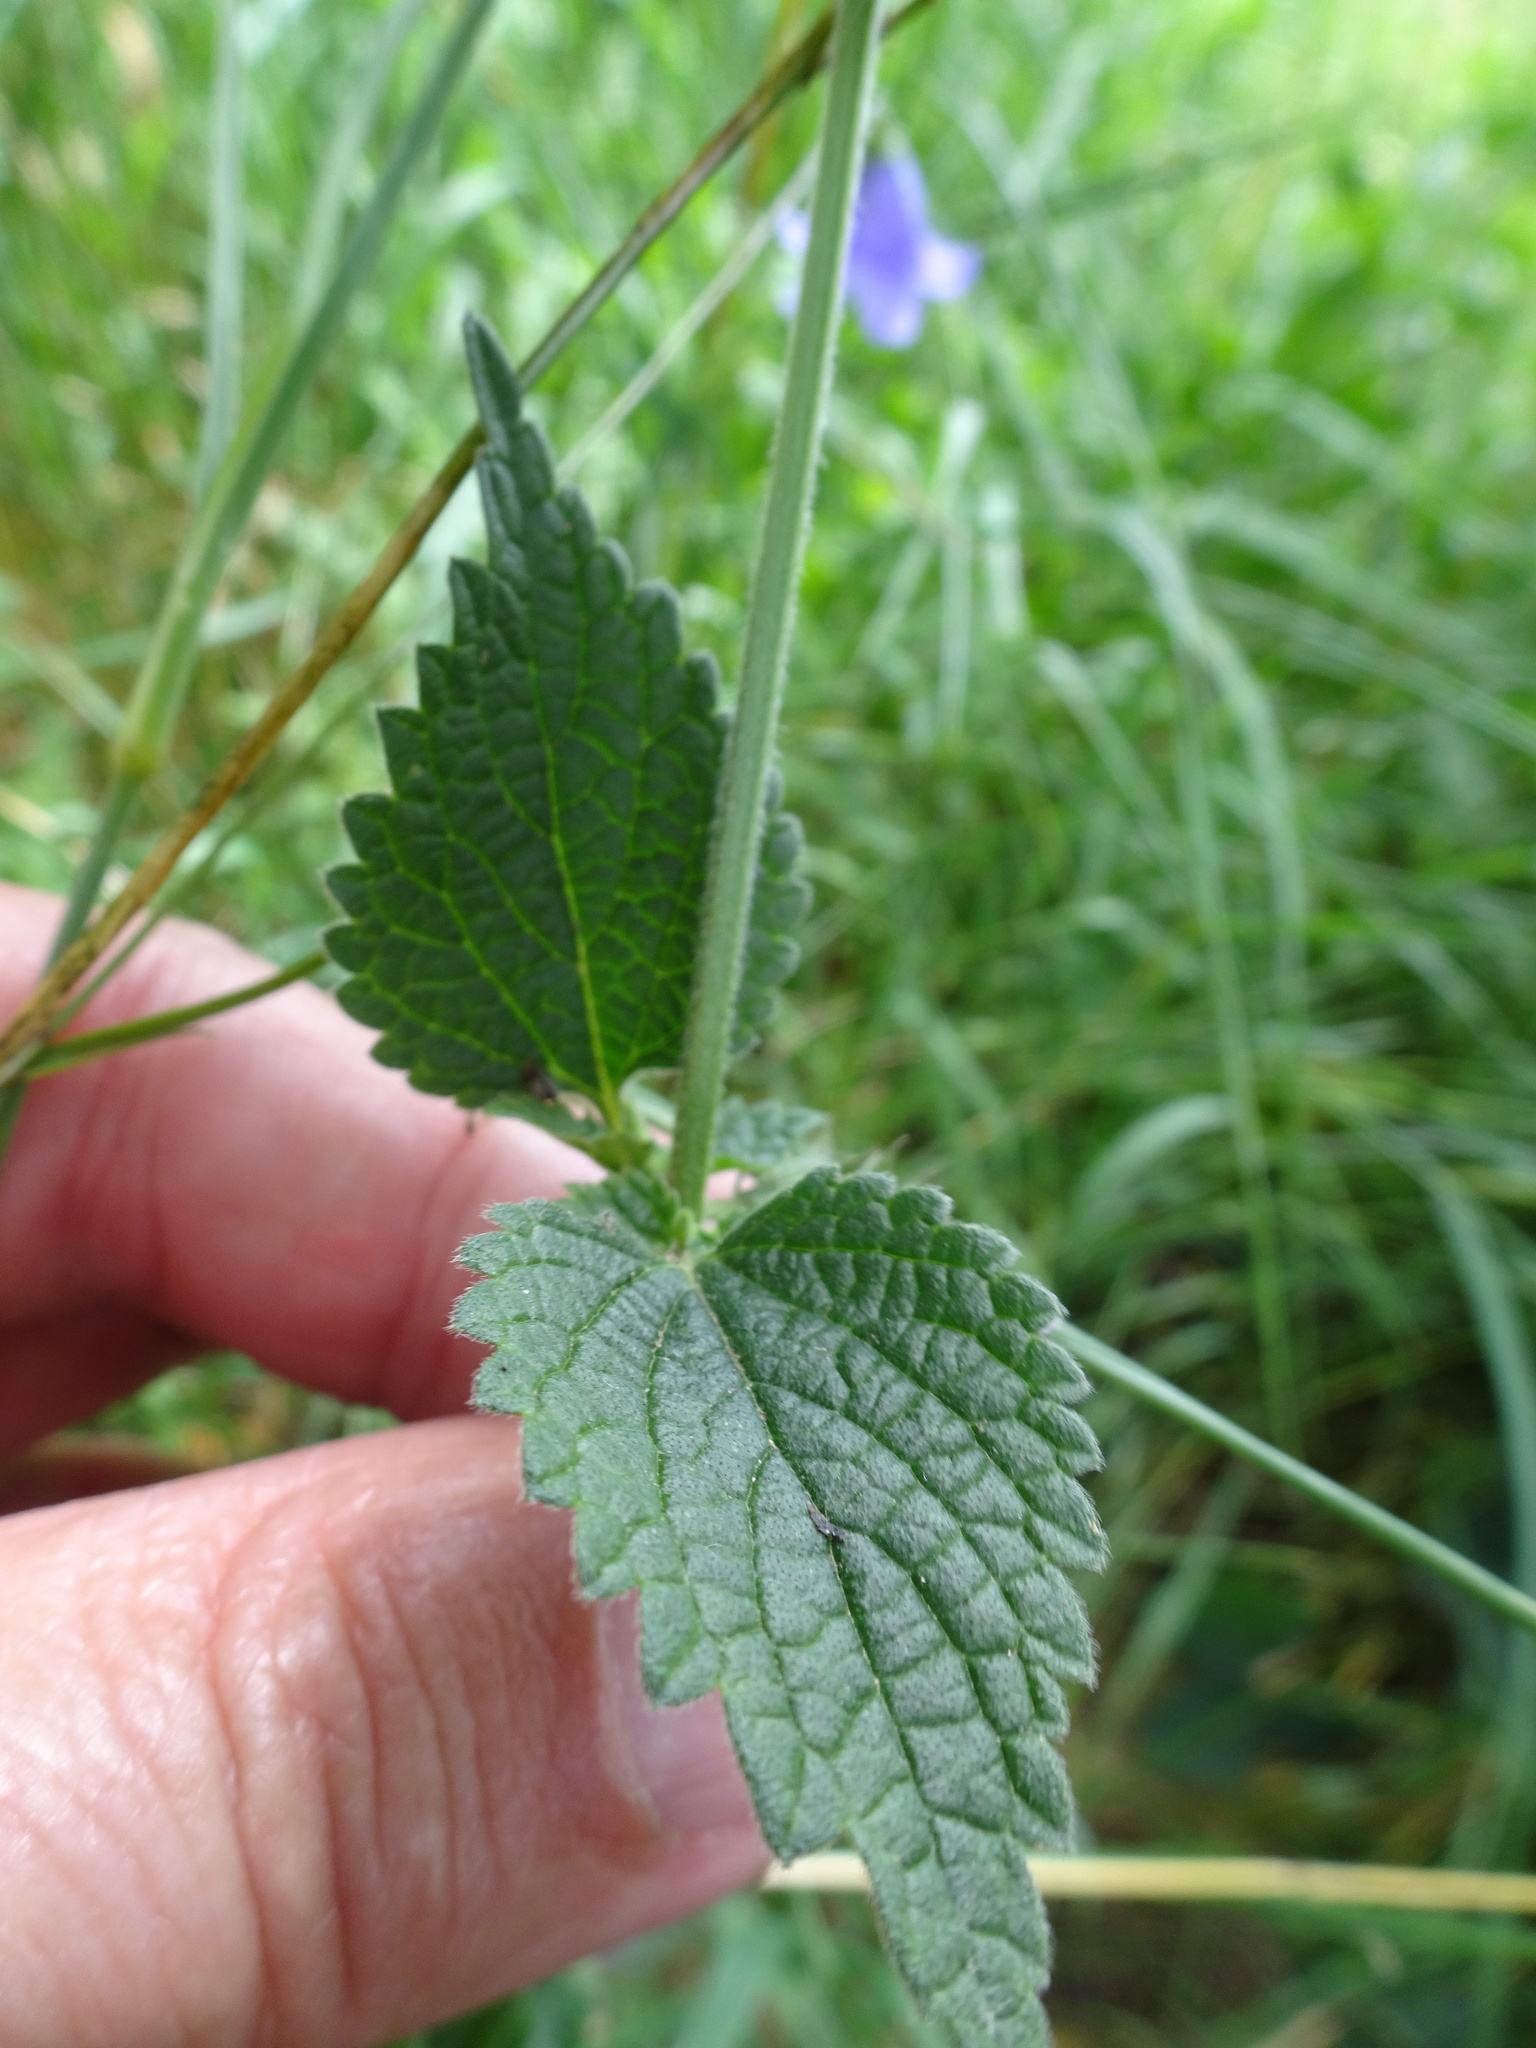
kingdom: Plantae
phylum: Tracheophyta
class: Magnoliopsida
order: Lamiales
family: Lamiaceae
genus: Ballota
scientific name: Ballota nigra
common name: Black horehound
